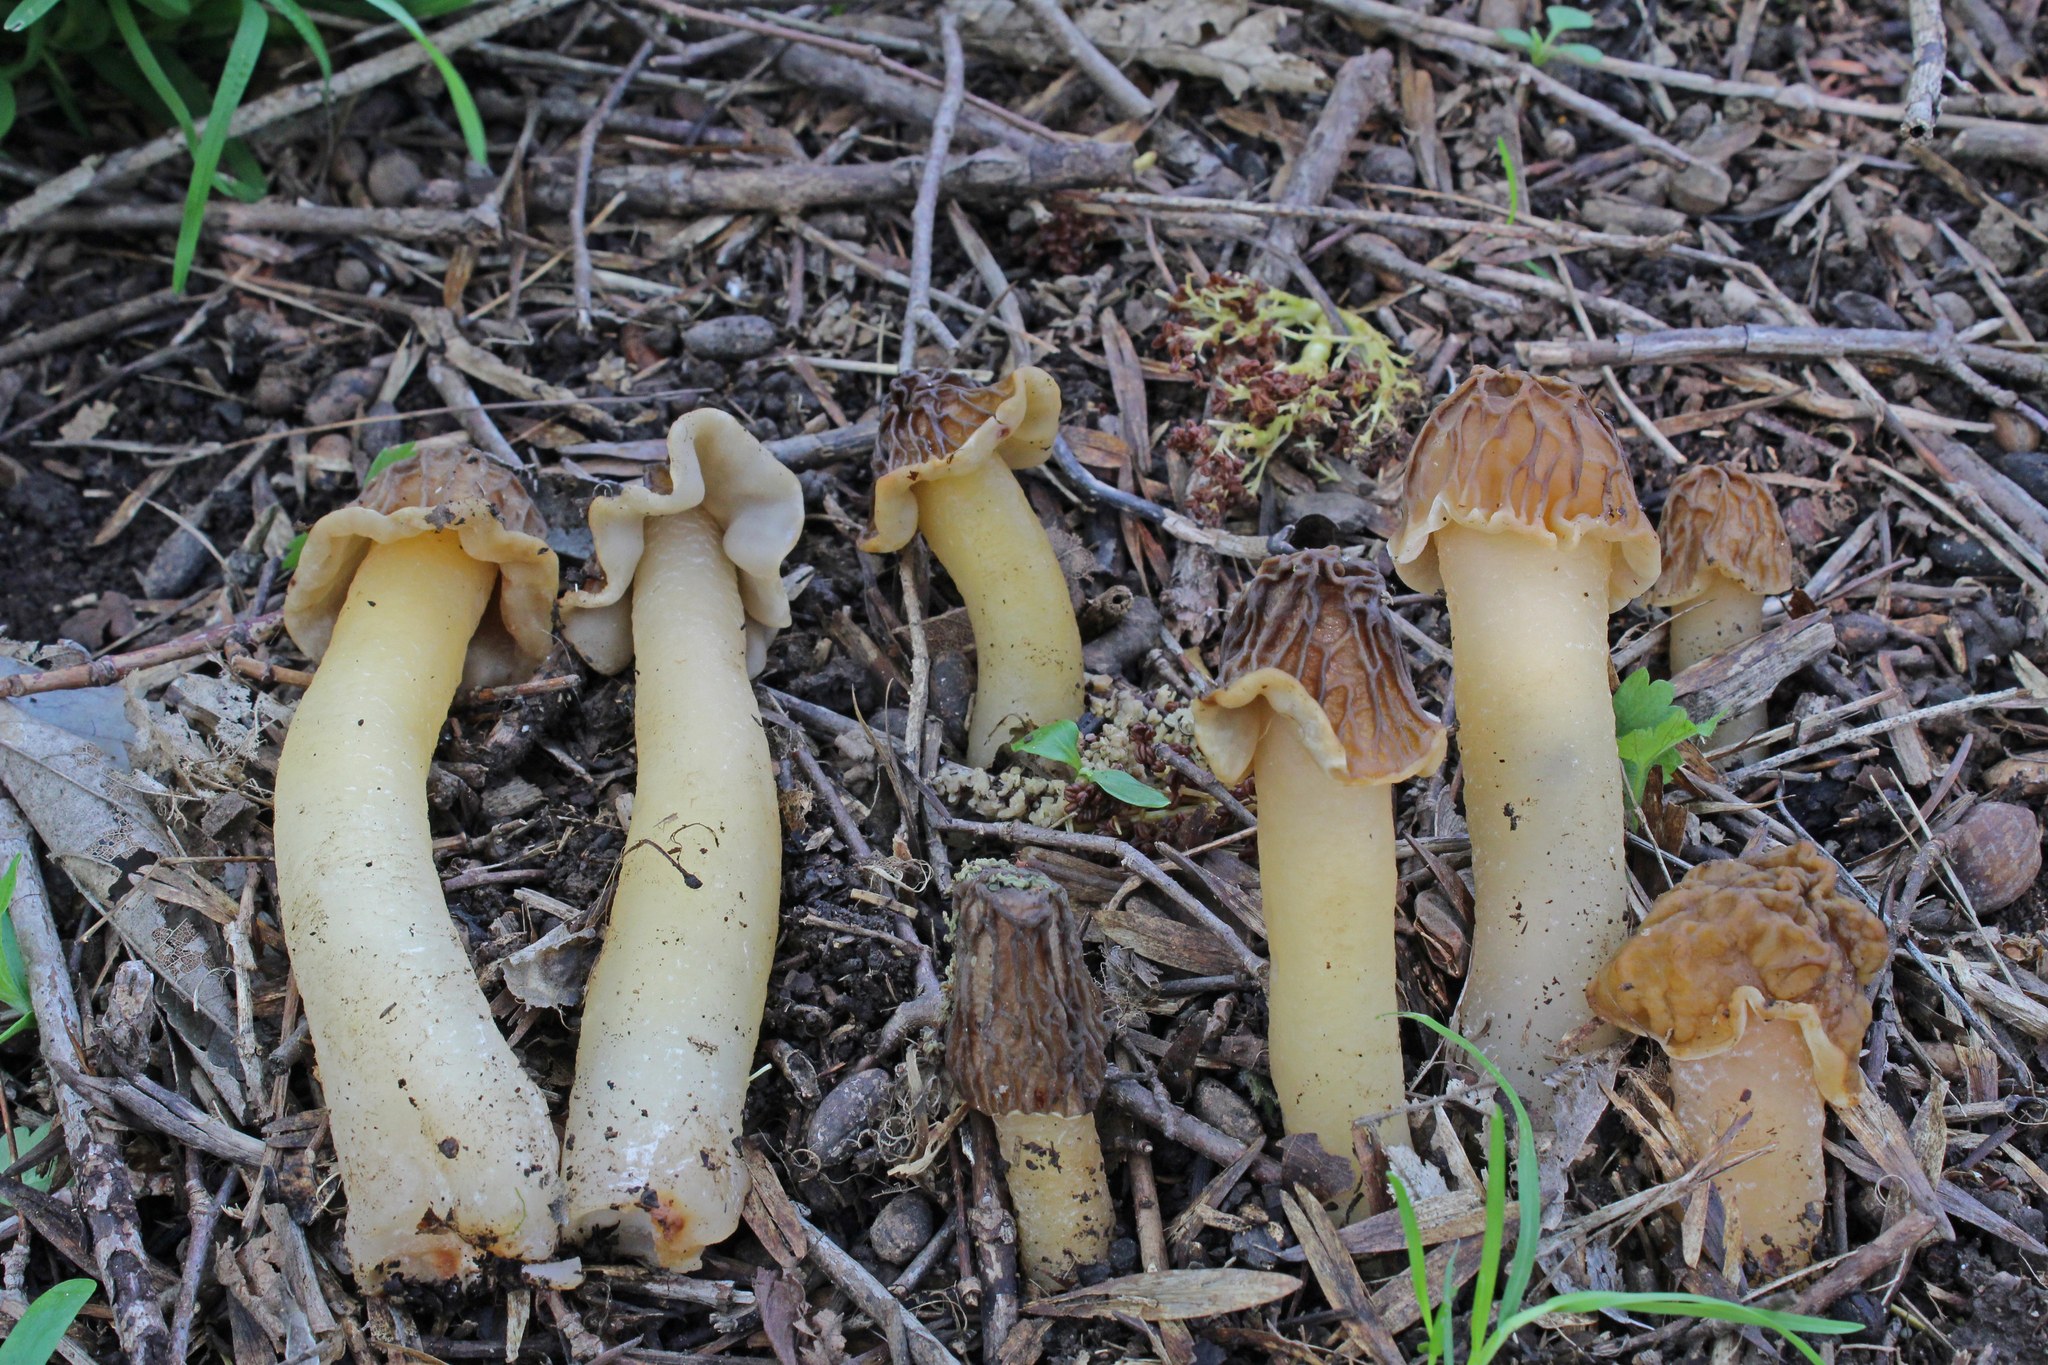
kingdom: Fungi
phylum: Ascomycota
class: Pezizomycetes
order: Pezizales
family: Morchellaceae
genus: Verpa
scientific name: Verpa bohemica
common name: Wrinkled thimble morel
